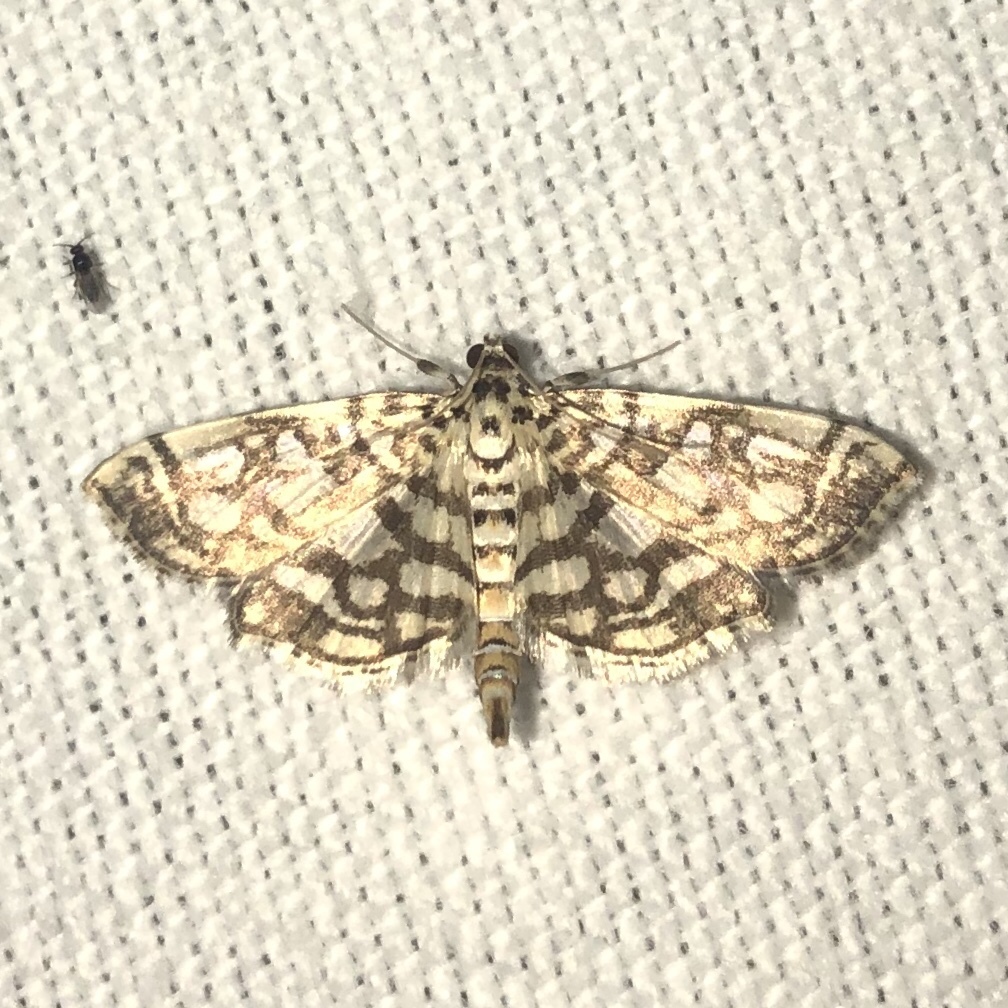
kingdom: Animalia
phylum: Arthropoda
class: Insecta
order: Lepidoptera
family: Crambidae
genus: Lygropia
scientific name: Lygropia rivulalis
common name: Bog lygropia moth
